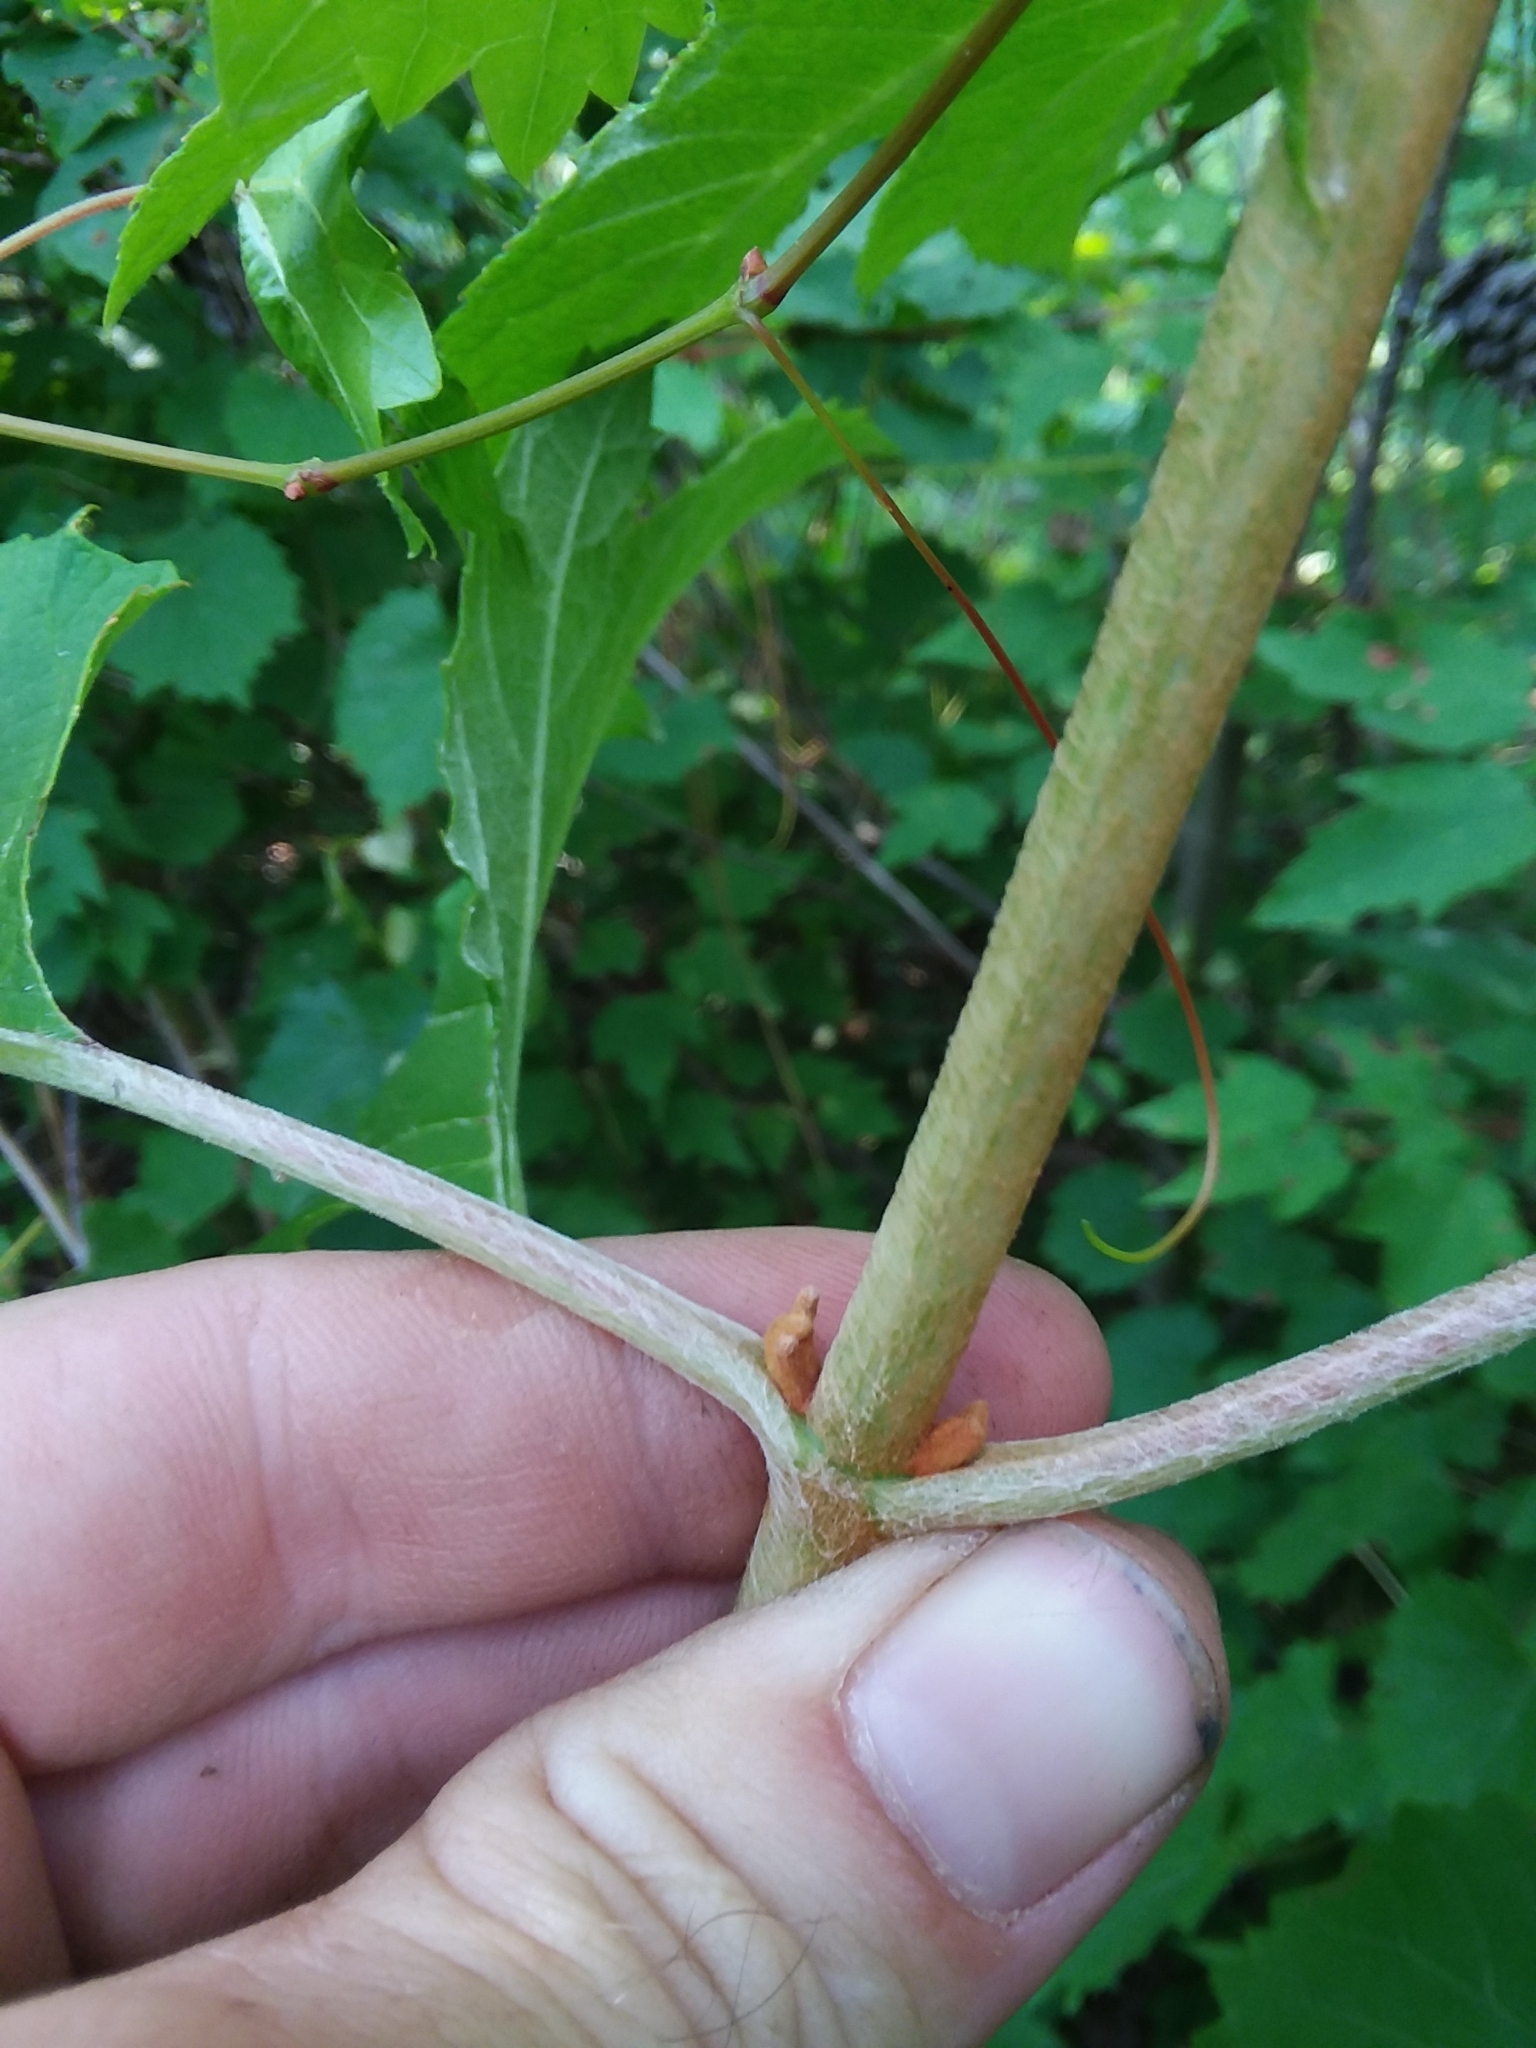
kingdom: Plantae
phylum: Tracheophyta
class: Magnoliopsida
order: Cornales
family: Hydrangeaceae
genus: Hydrangea
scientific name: Hydrangea quercifolia
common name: Oak-leaf hydrangea
